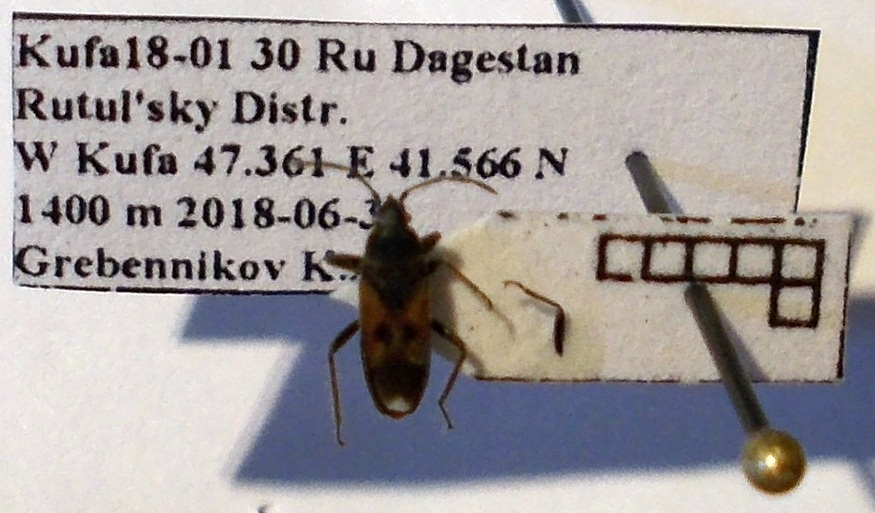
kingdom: Animalia
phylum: Arthropoda
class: Insecta
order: Hemiptera
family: Rhyparochromidae
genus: Pezocoris
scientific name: Pezocoris apicimacula
